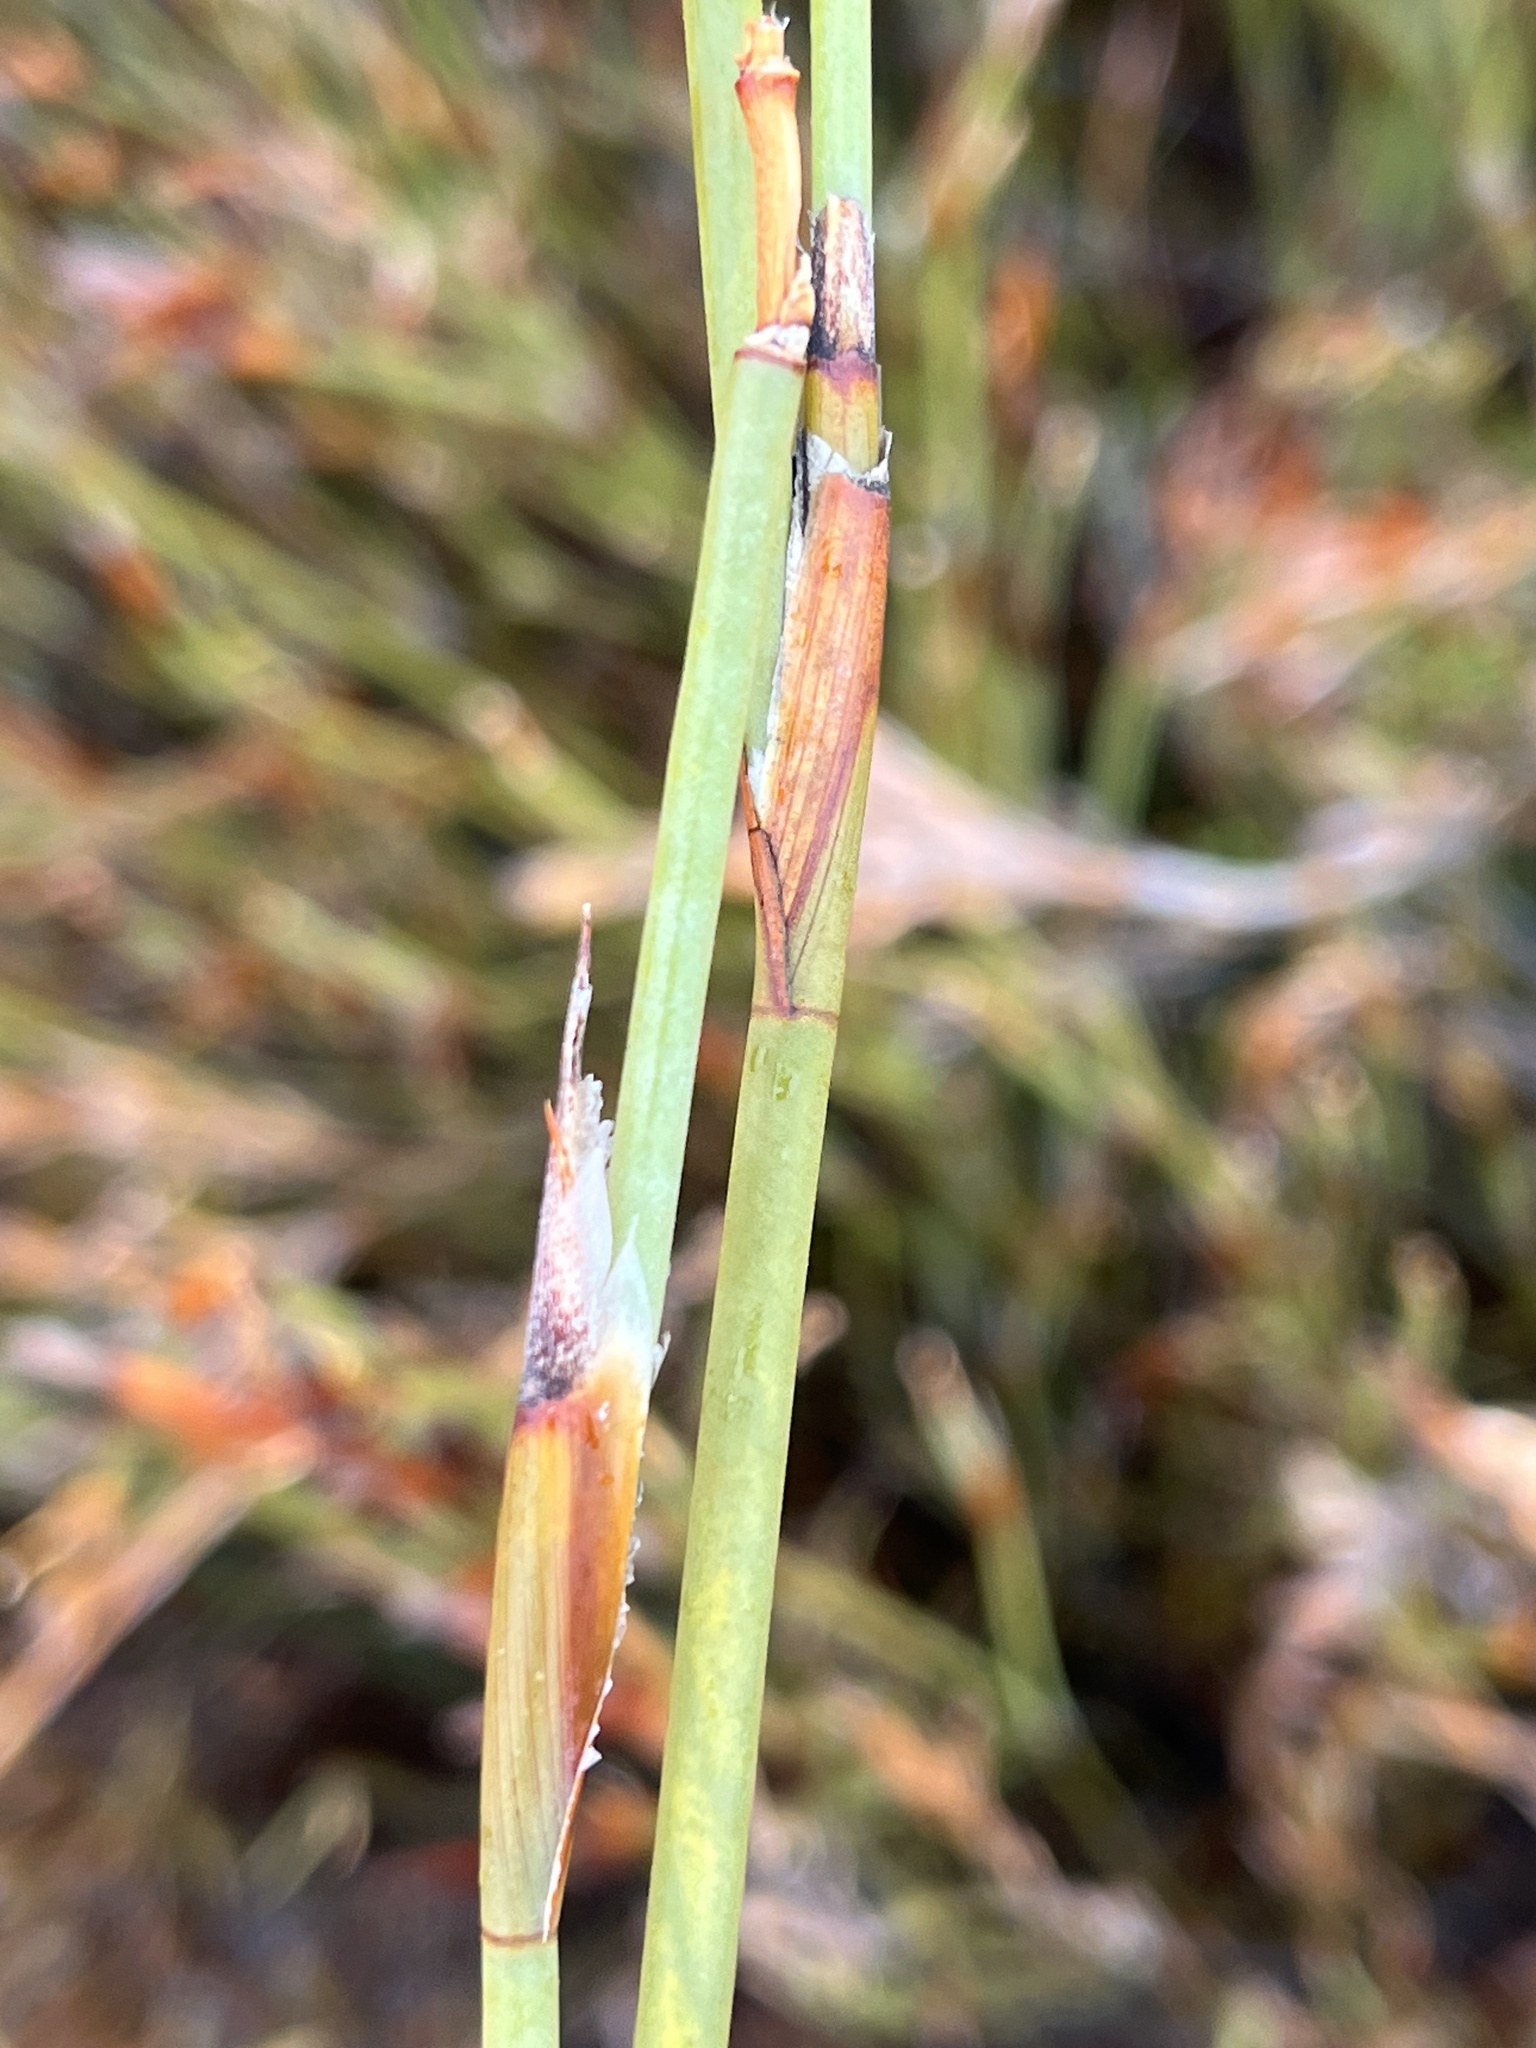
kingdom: Plantae
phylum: Tracheophyta
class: Liliopsida
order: Poales
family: Restionaceae
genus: Willdenowia
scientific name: Willdenowia teres
